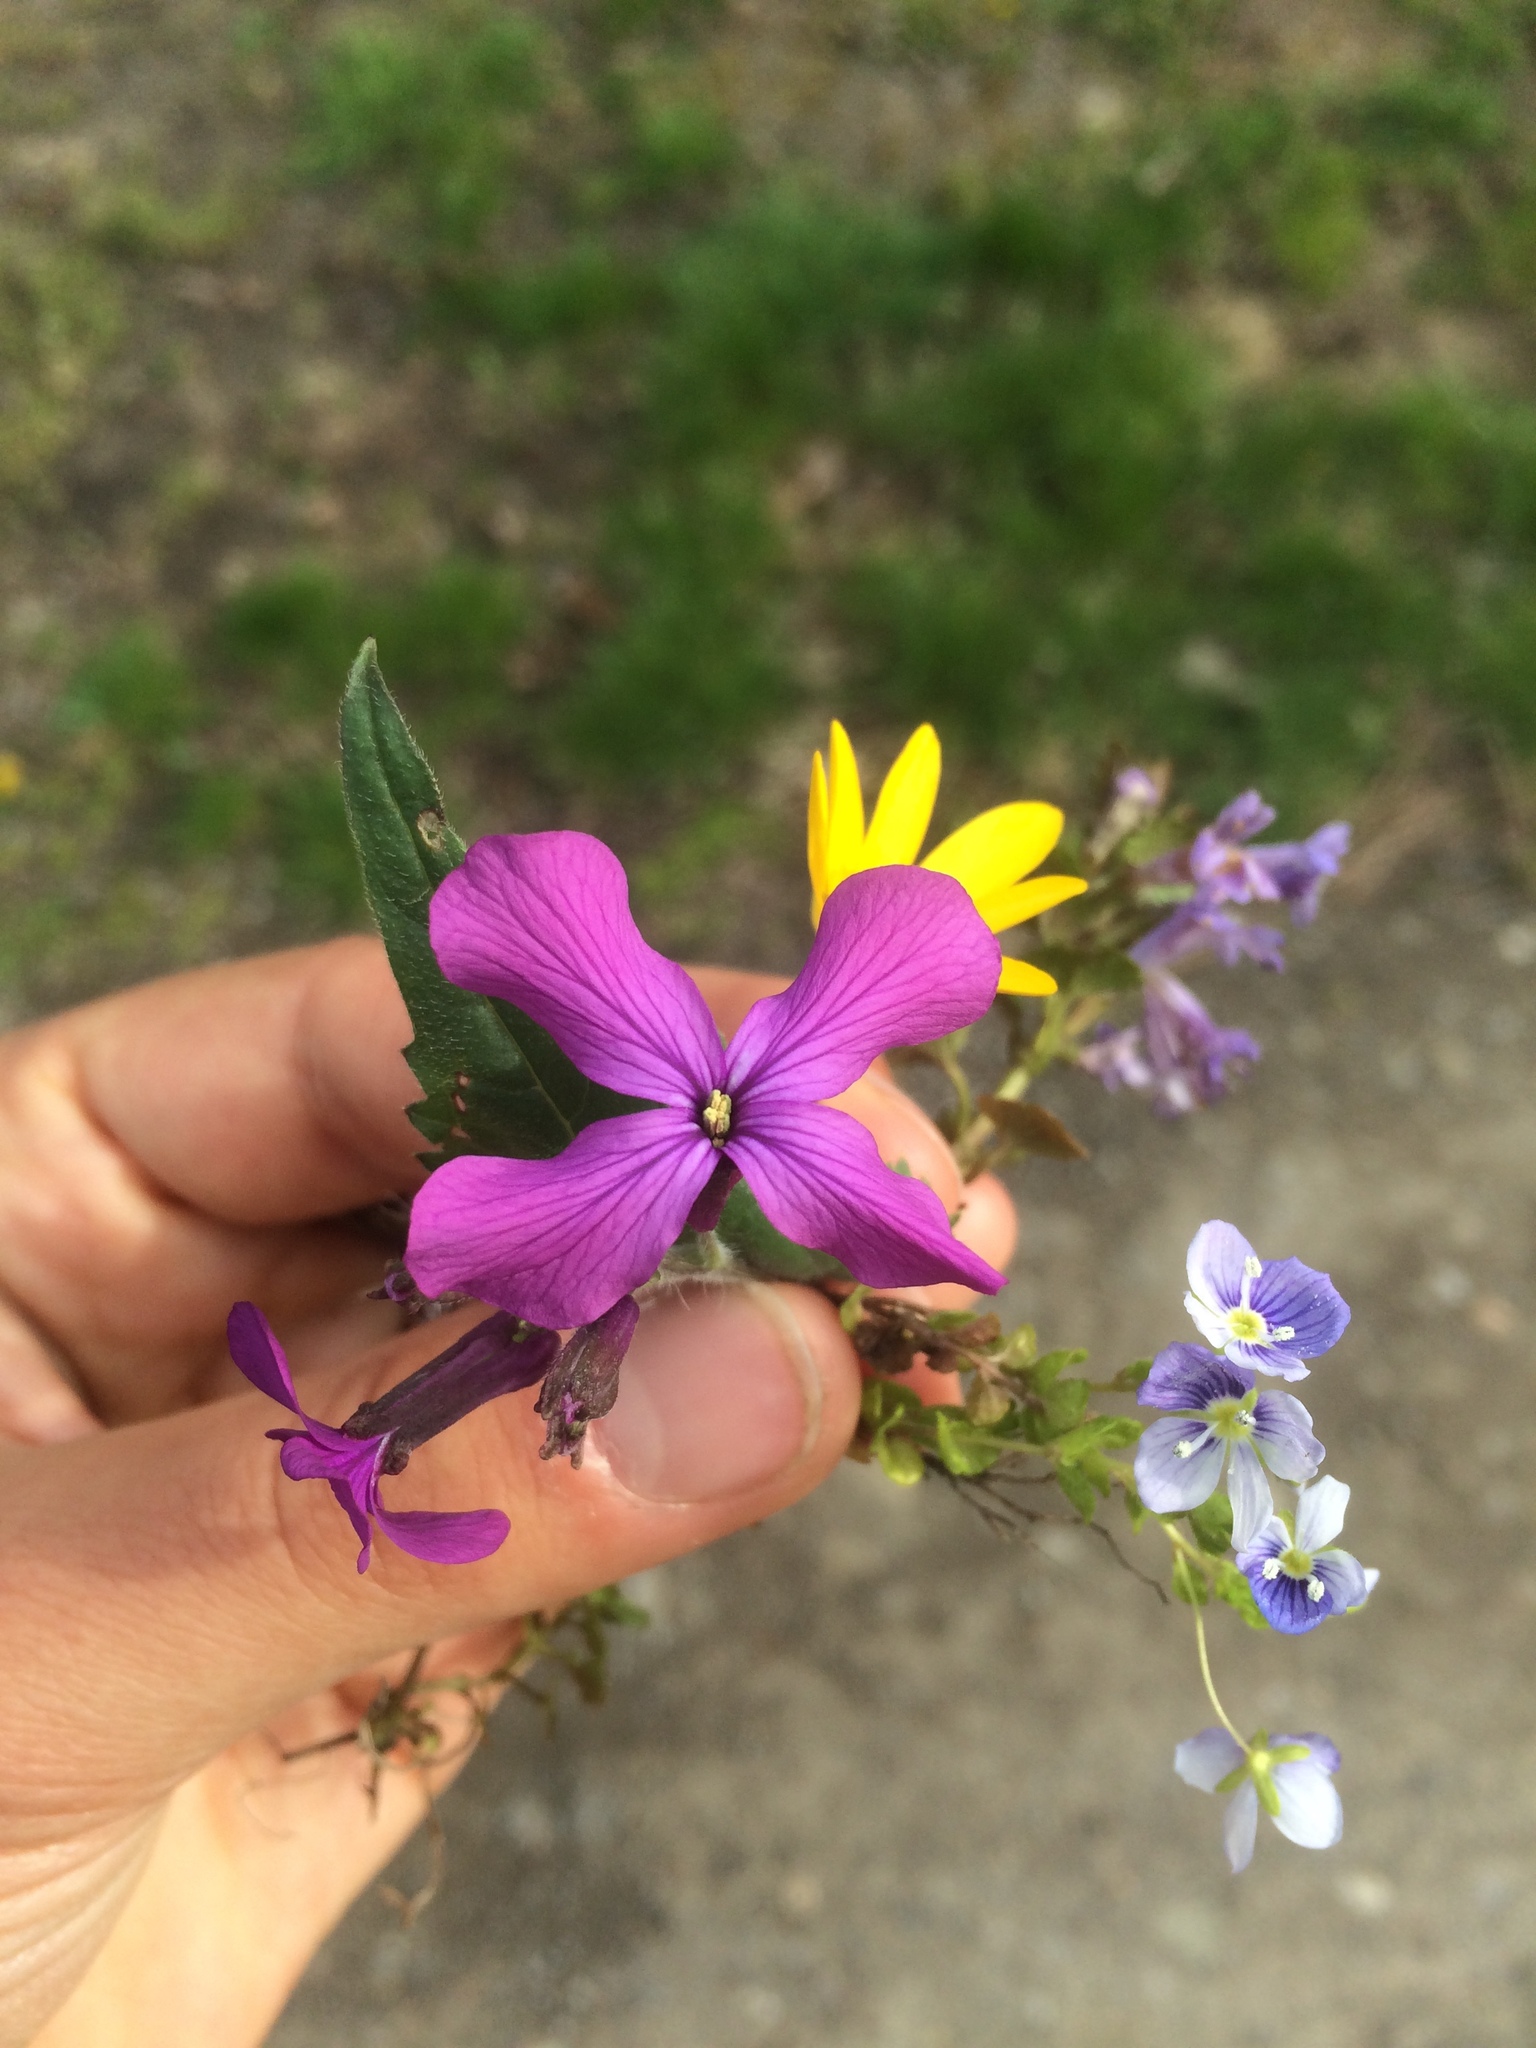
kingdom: Plantae
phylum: Tracheophyta
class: Magnoliopsida
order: Brassicales
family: Brassicaceae
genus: Lunaria
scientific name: Lunaria annua
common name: Honesty
